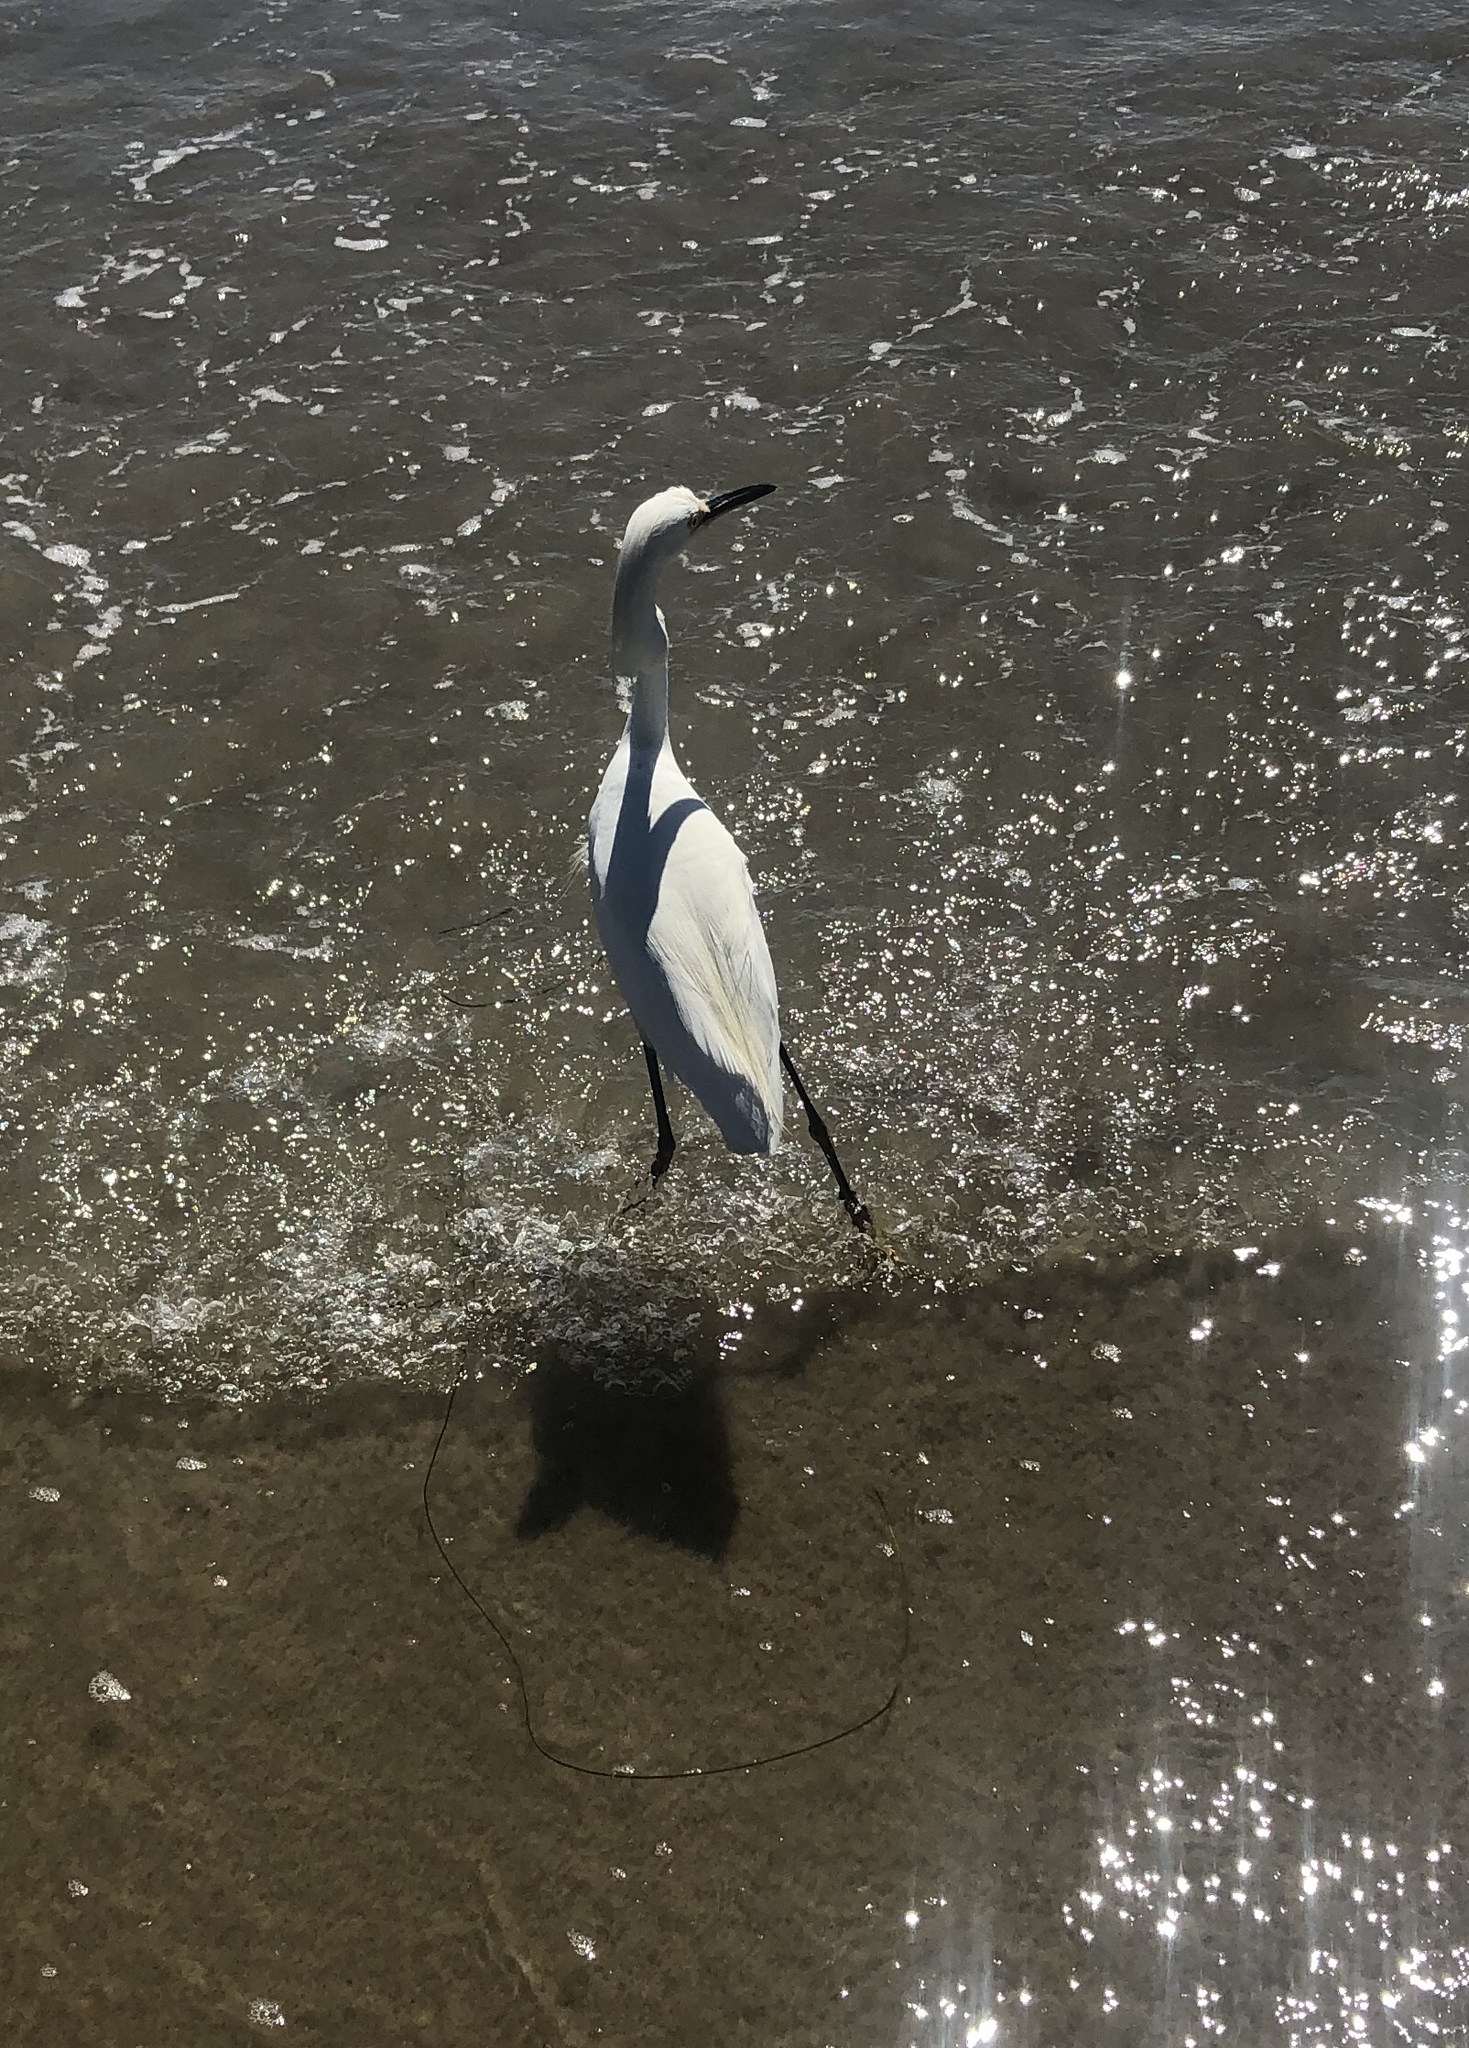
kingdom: Animalia
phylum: Chordata
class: Aves
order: Pelecaniformes
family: Ardeidae
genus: Egretta
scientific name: Egretta thula
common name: Snowy egret
